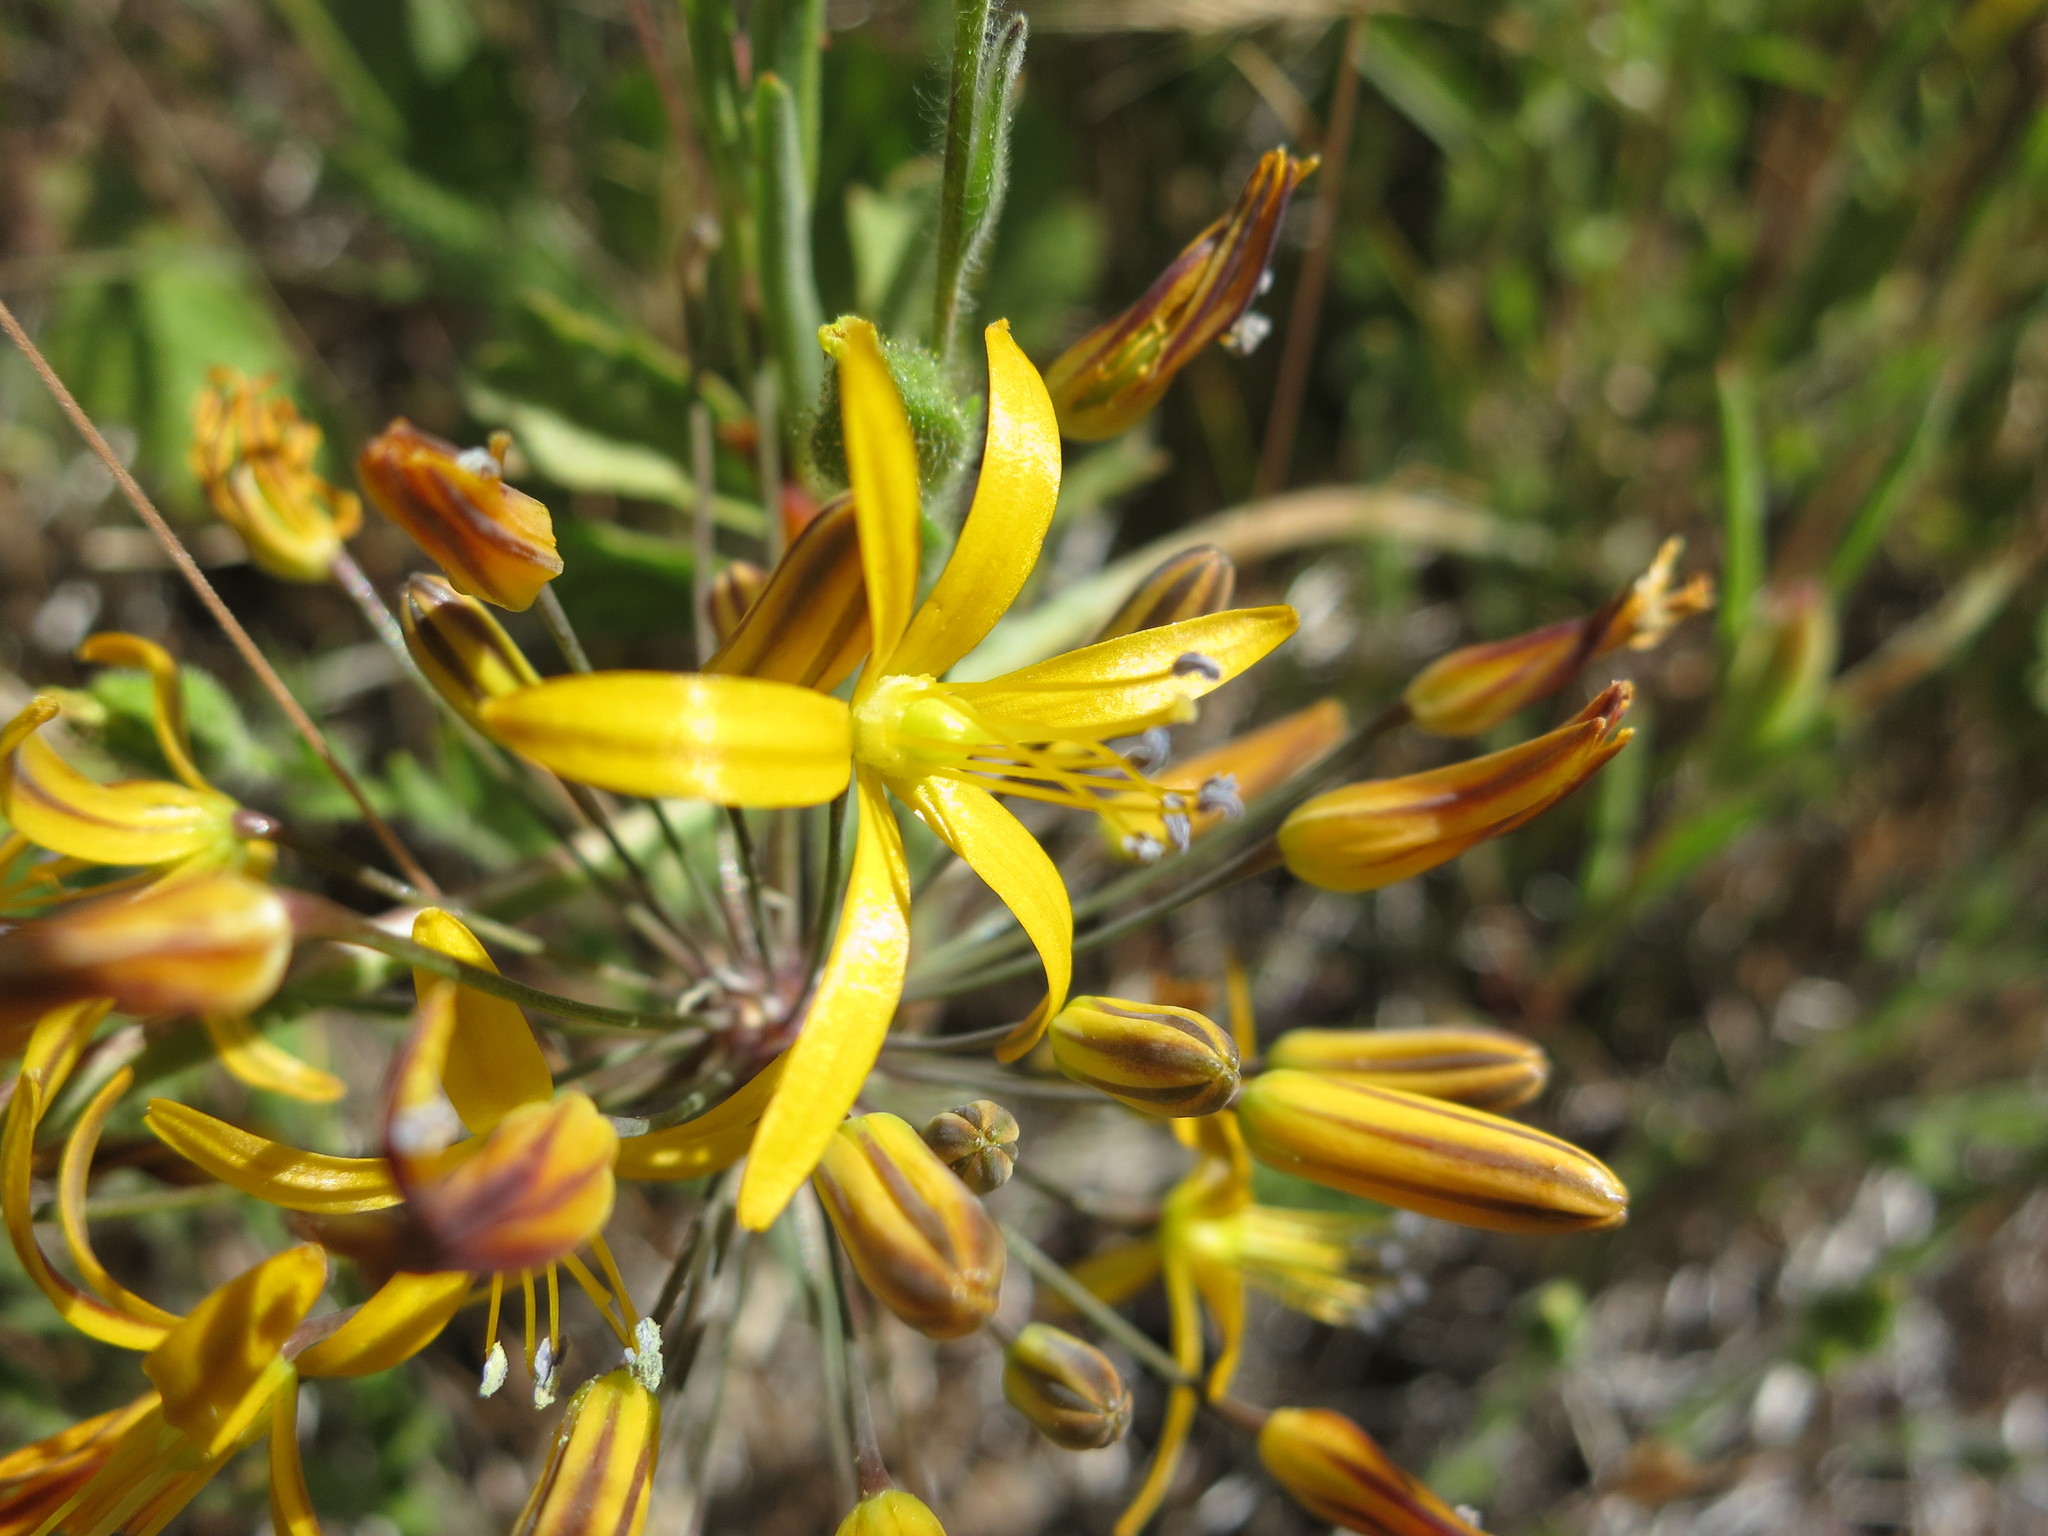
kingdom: Plantae
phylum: Tracheophyta
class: Liliopsida
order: Asparagales
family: Asparagaceae
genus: Bloomeria
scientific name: Bloomeria crocea
